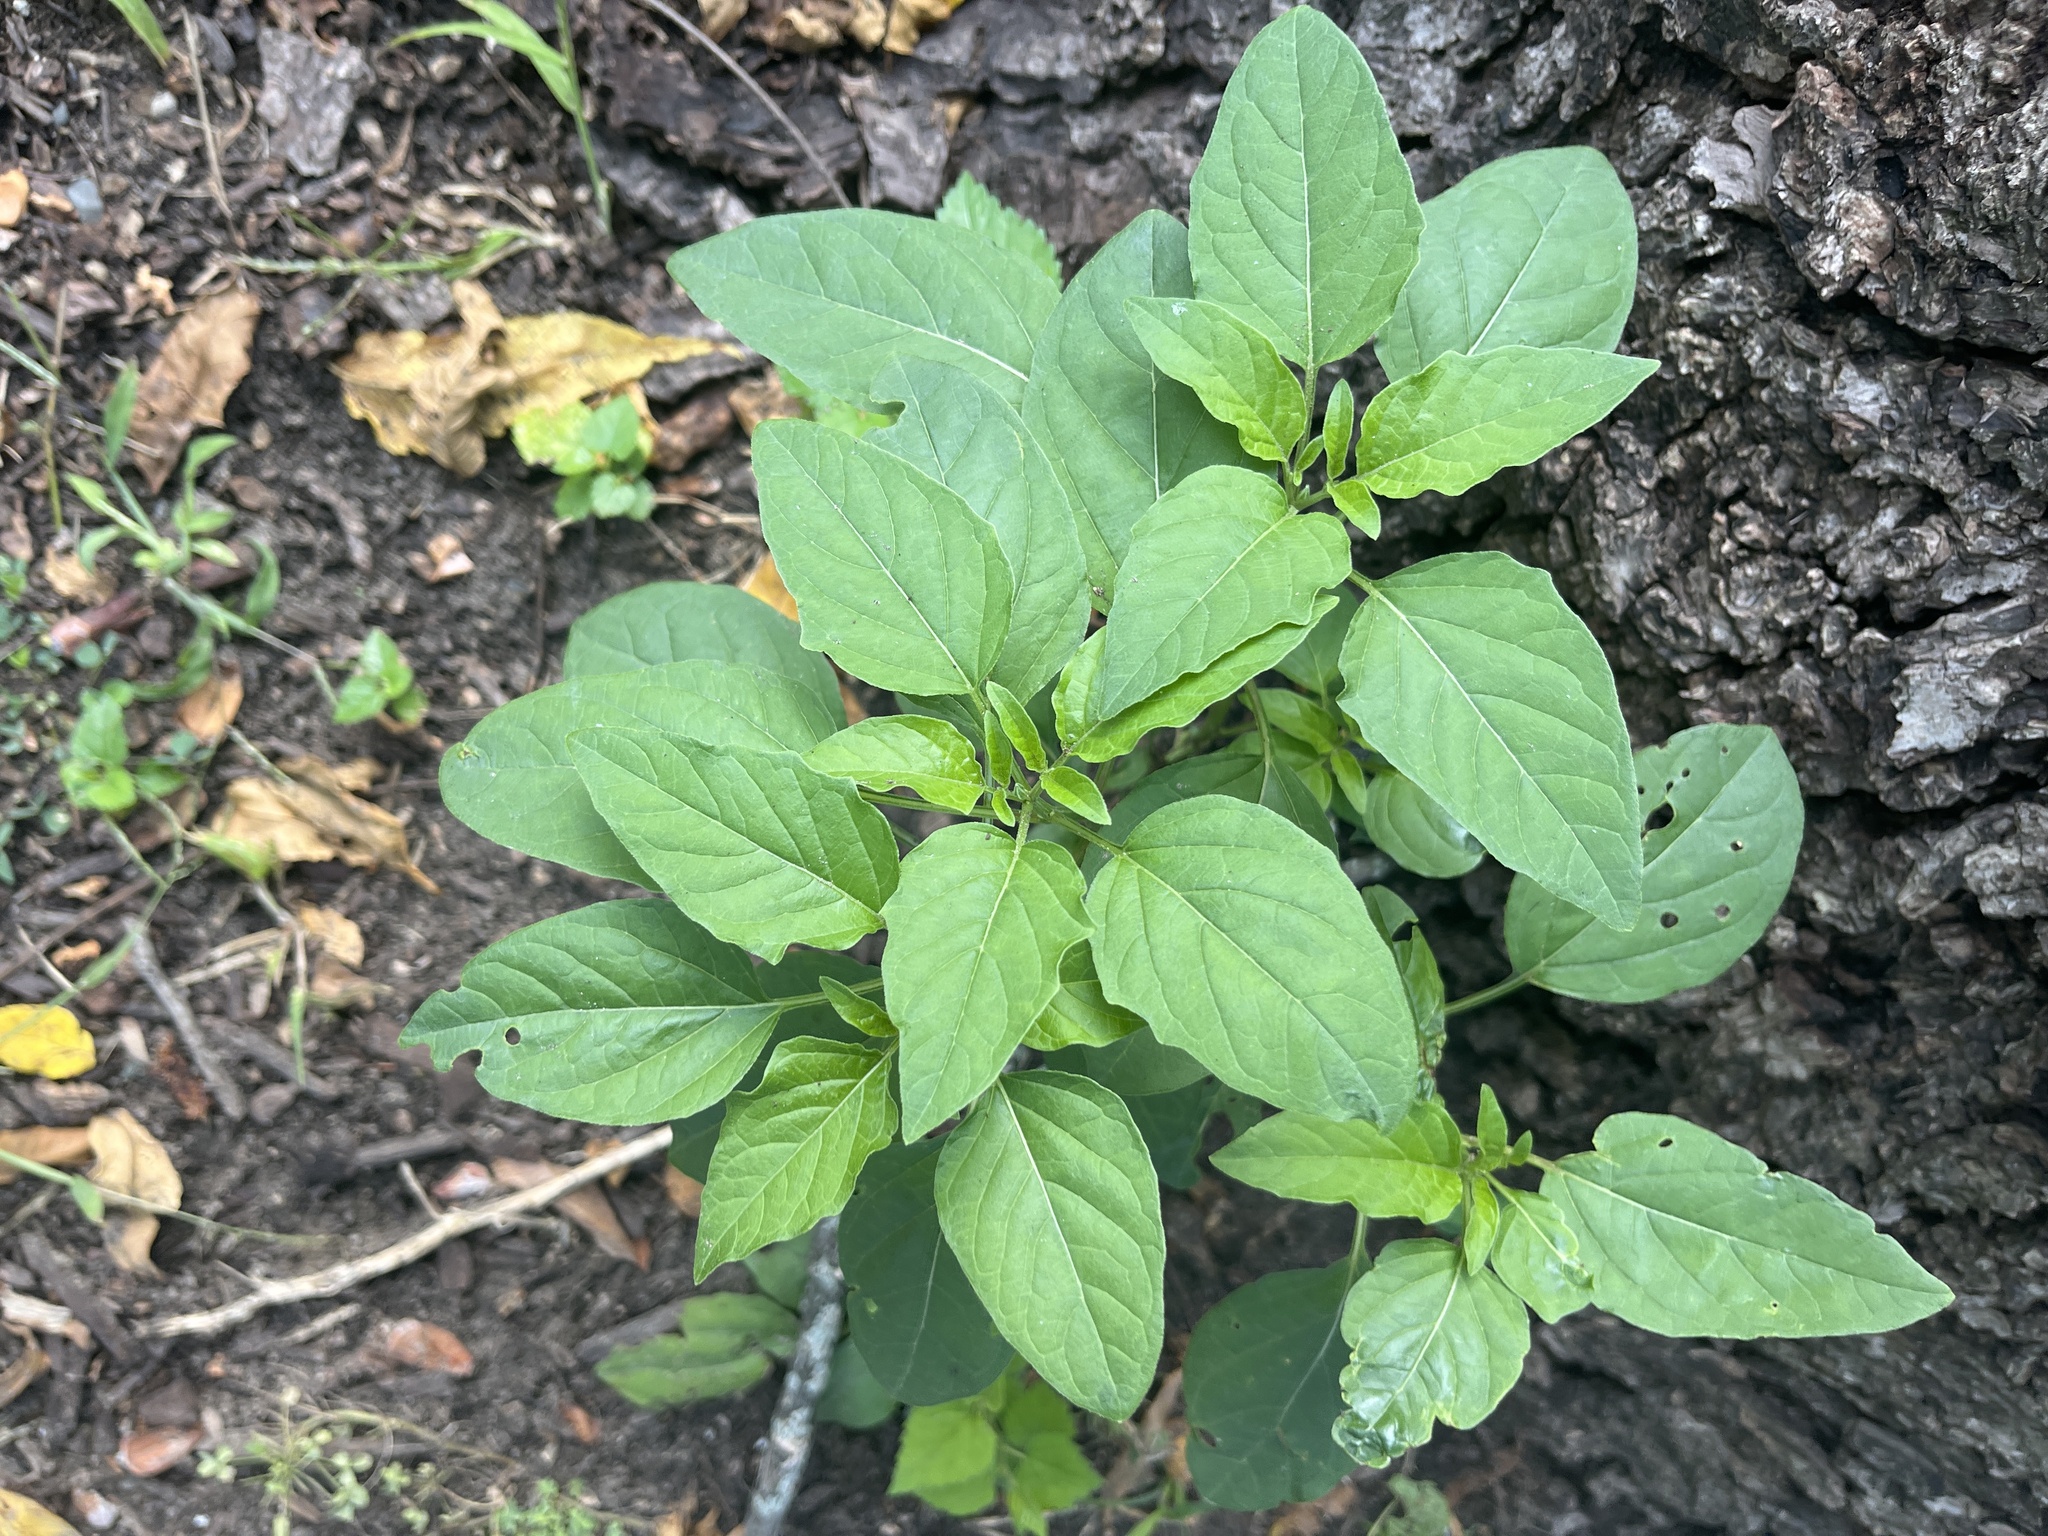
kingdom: Plantae
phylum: Tracheophyta
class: Magnoliopsida
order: Solanales
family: Solanaceae
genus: Physalis
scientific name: Physalis longifolia
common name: Common ground-cherry
